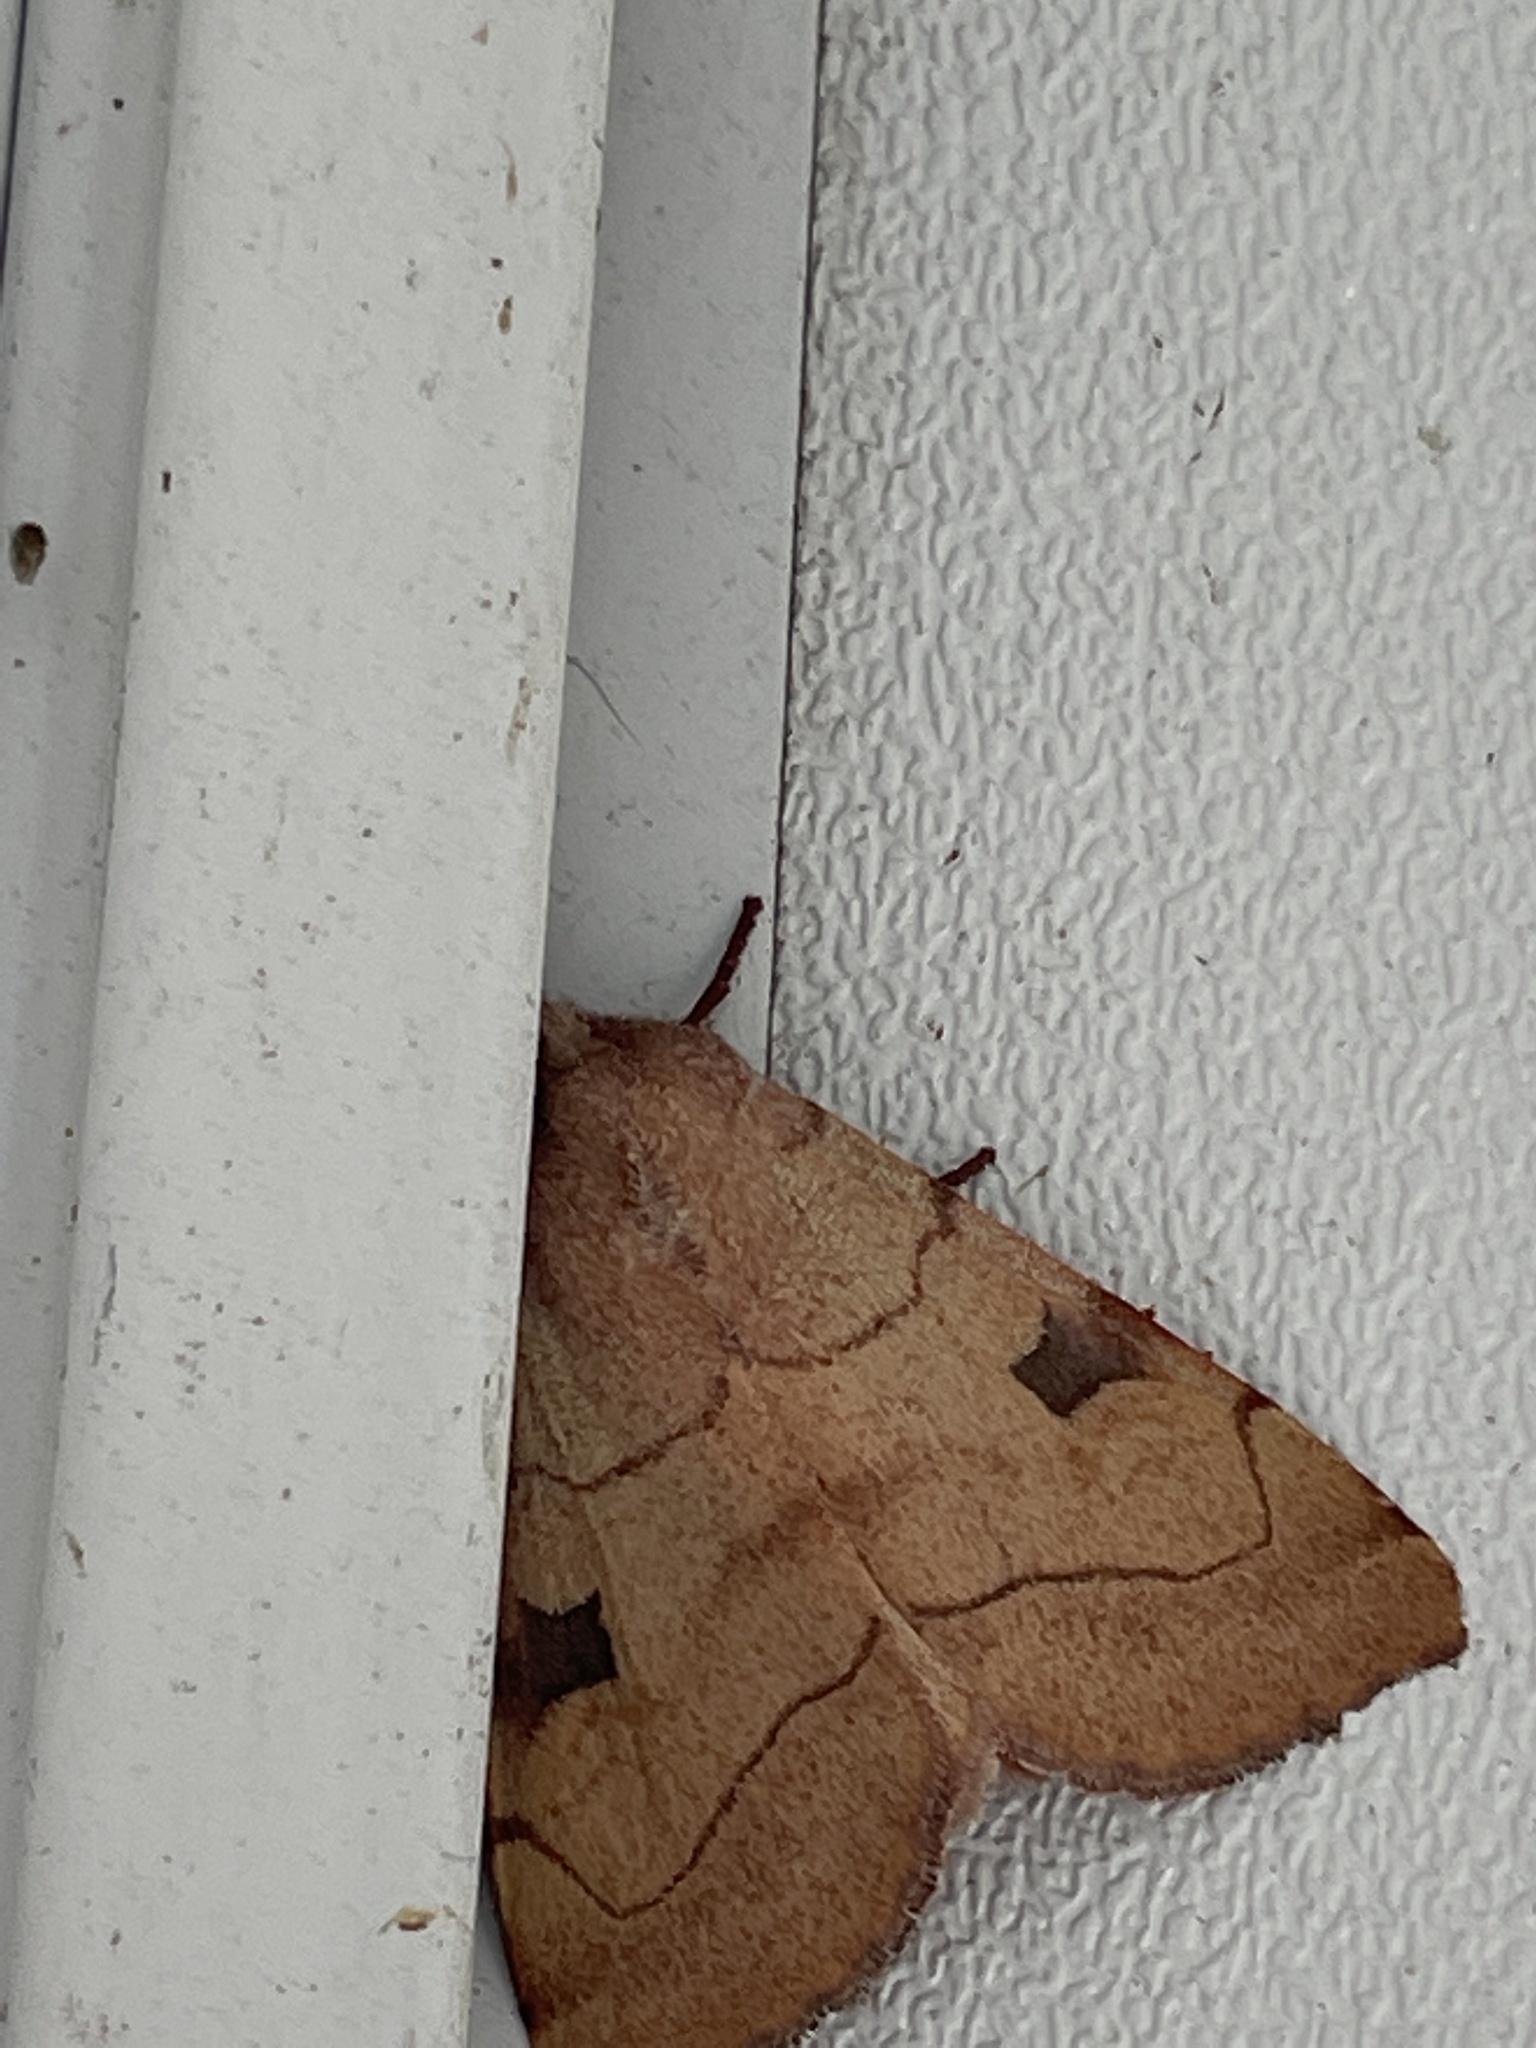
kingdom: Animalia
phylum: Arthropoda
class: Insecta
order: Lepidoptera
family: Noctuidae
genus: Choephora
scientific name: Choephora fungorum
